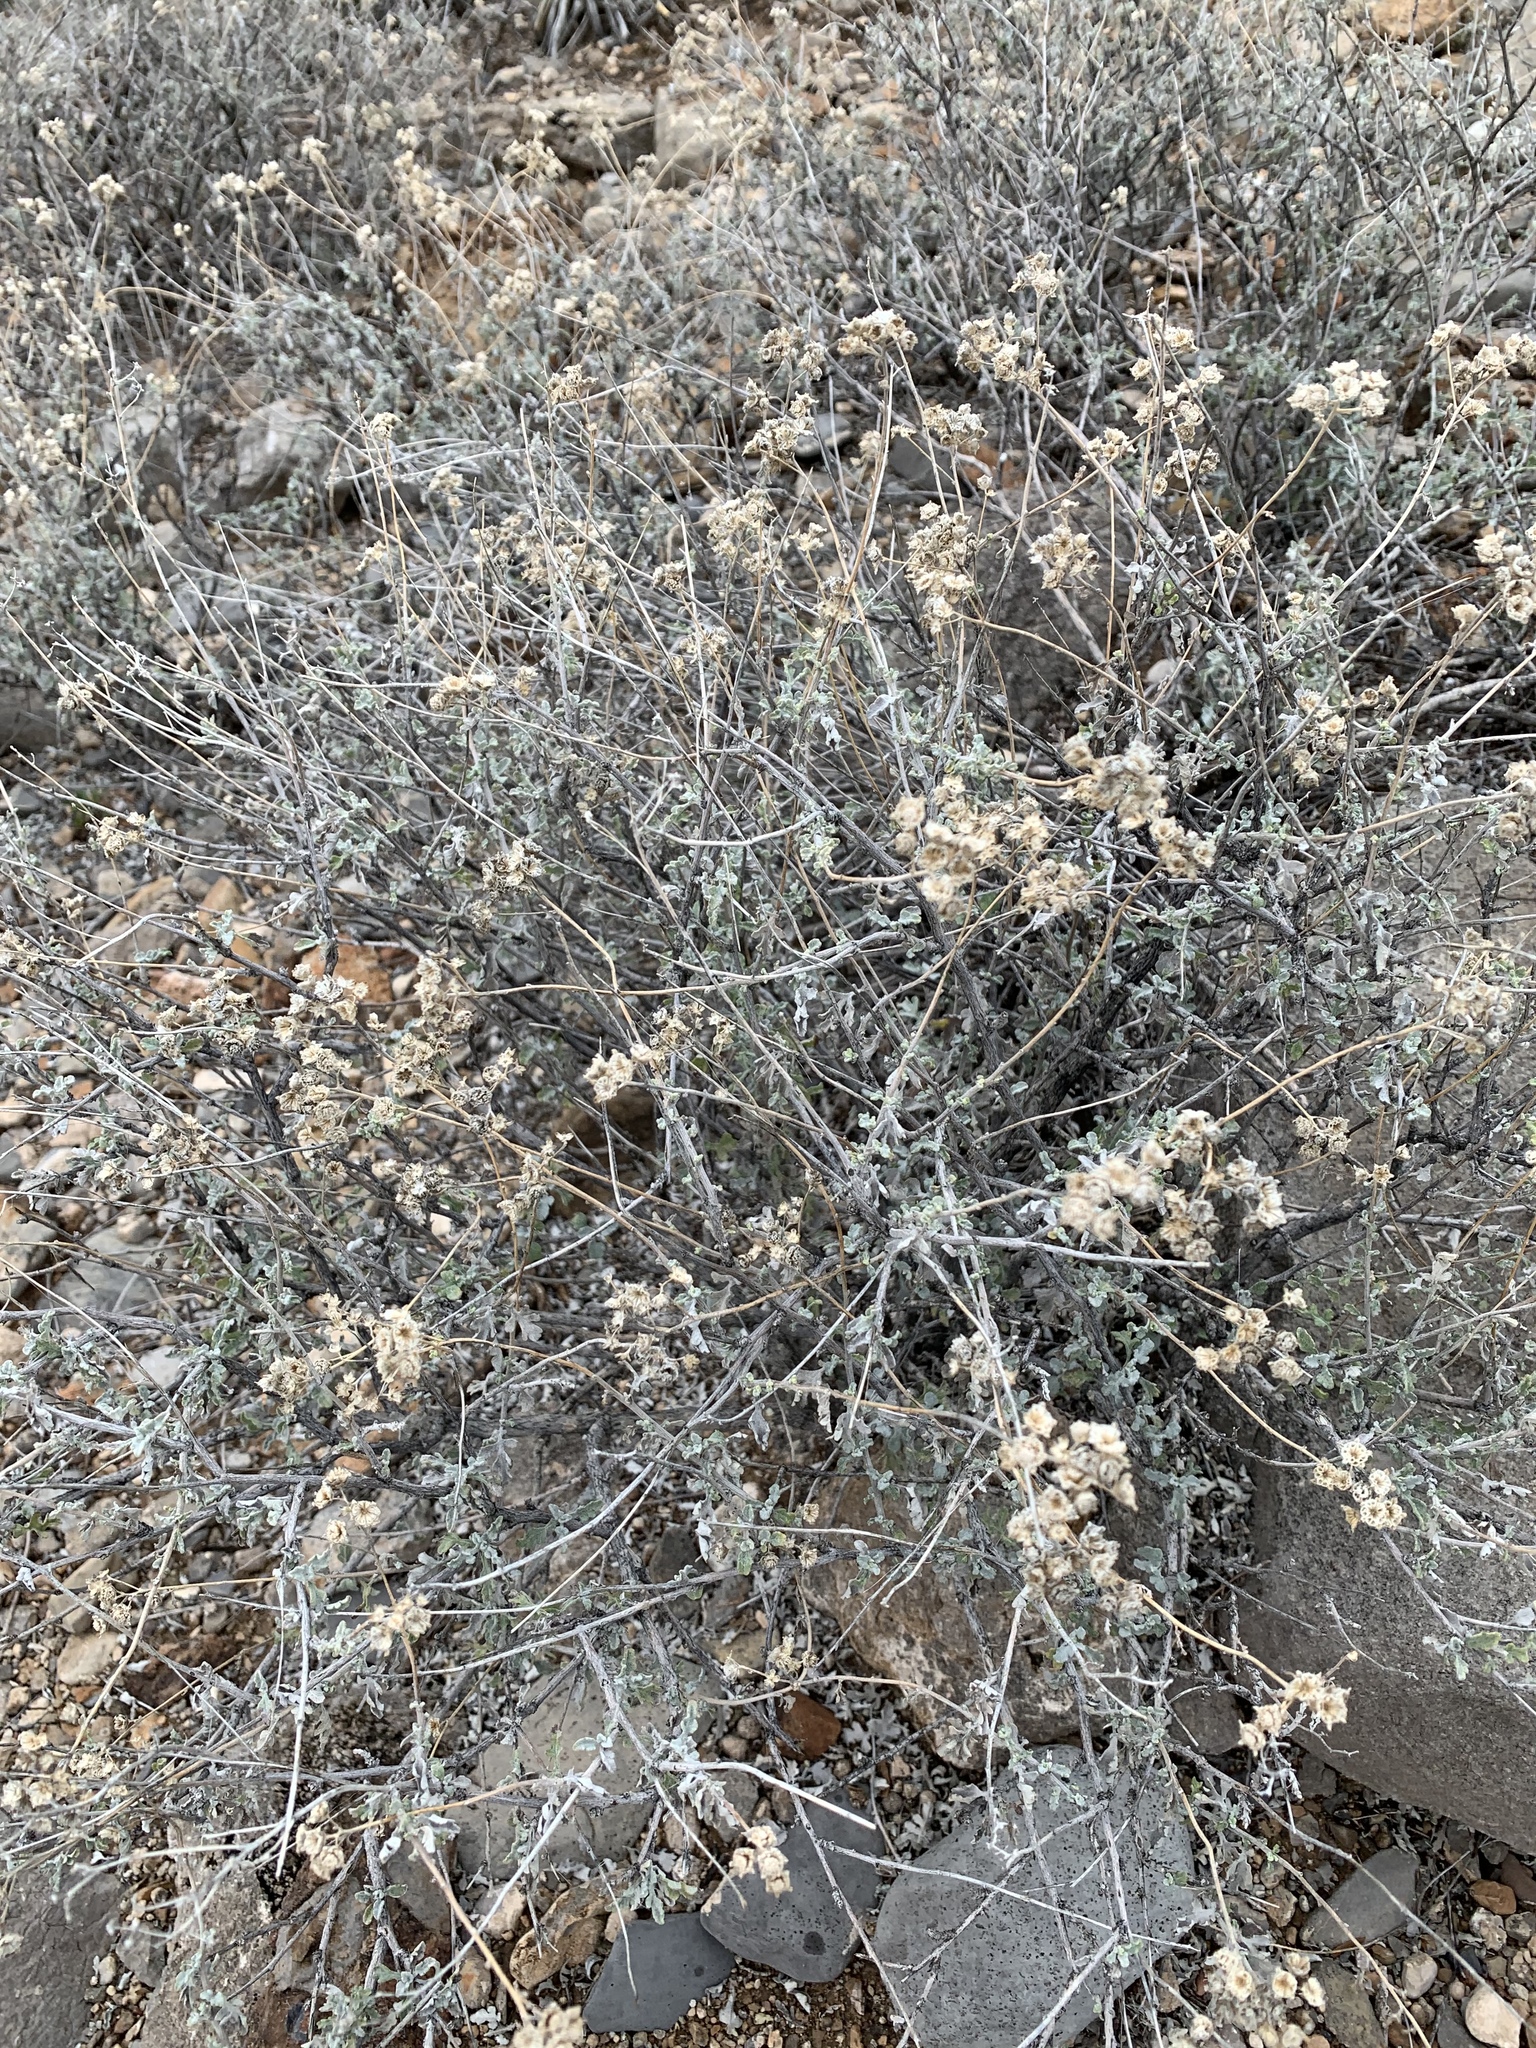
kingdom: Plantae
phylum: Tracheophyta
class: Magnoliopsida
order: Asterales
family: Asteraceae
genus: Parthenium
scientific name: Parthenium incanum
